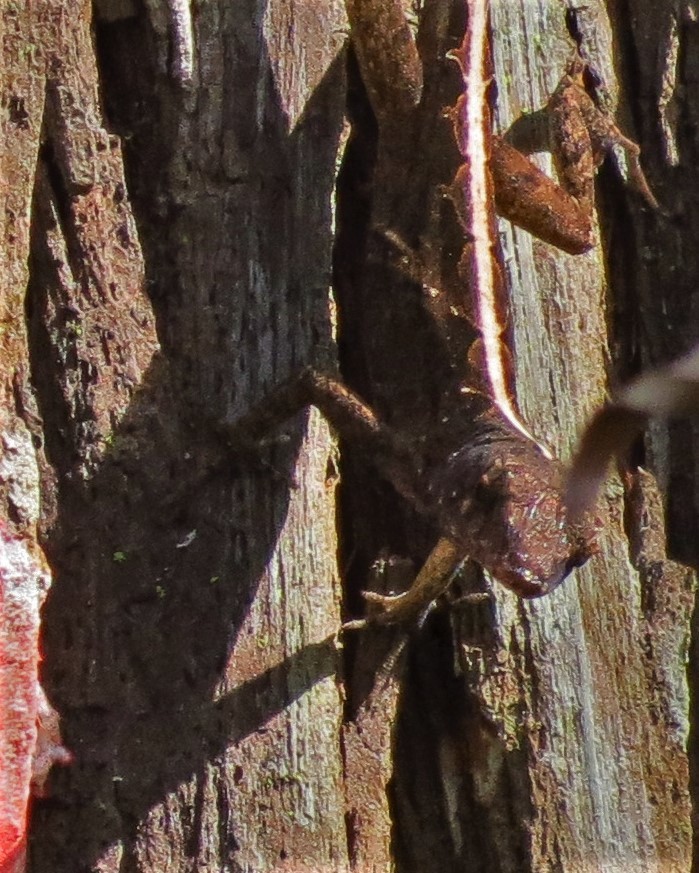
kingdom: Animalia
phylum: Chordata
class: Squamata
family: Dactyloidae
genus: Anolis
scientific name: Anolis sagrei
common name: Brown anole
